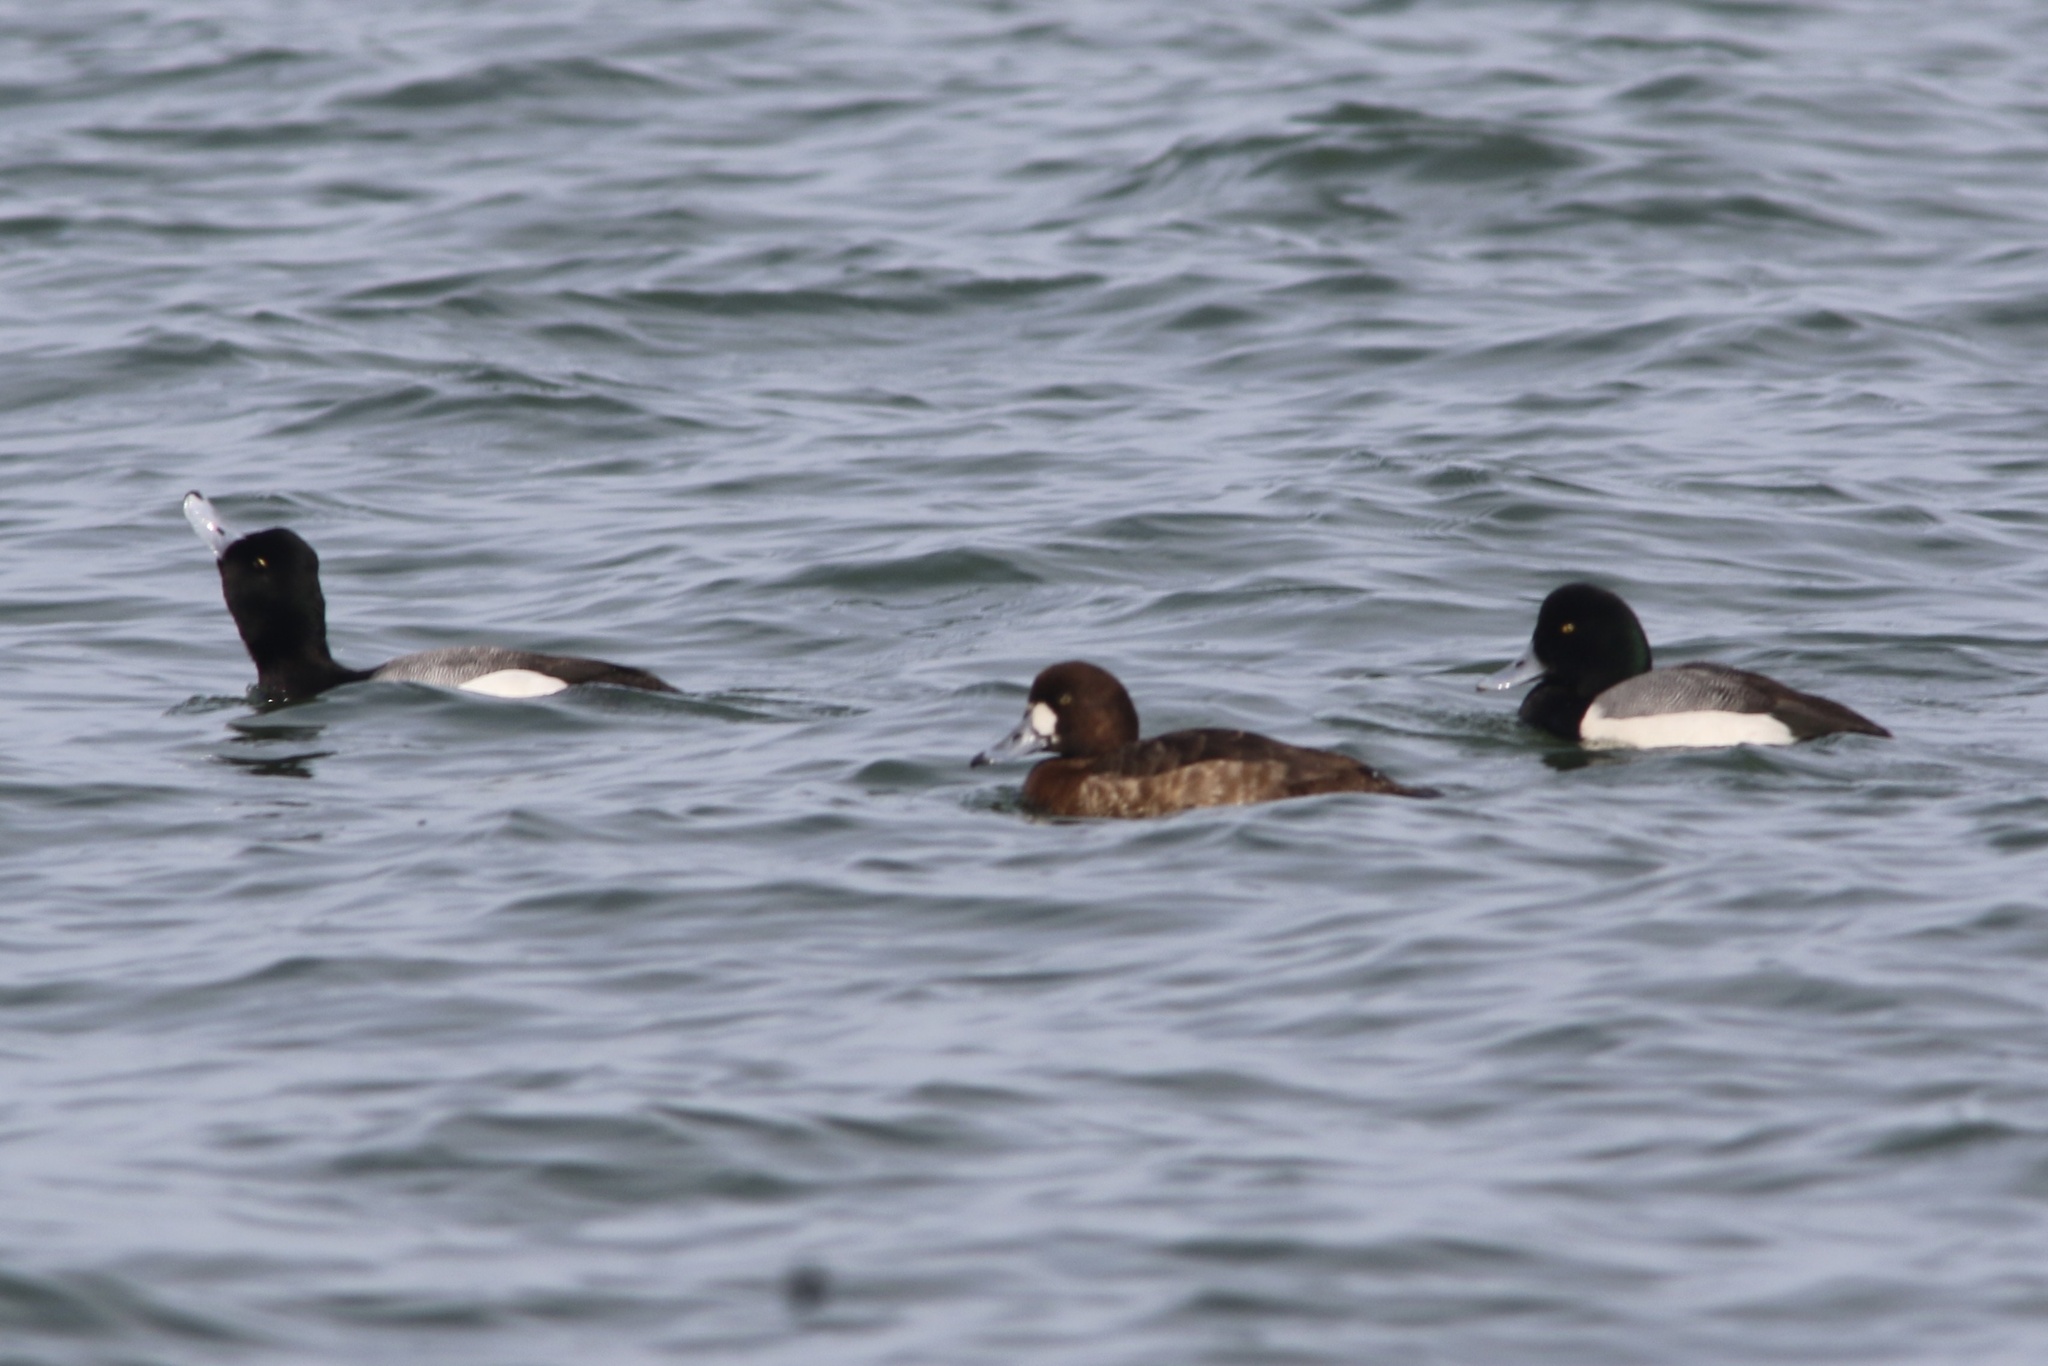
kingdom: Animalia
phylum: Chordata
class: Aves
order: Anseriformes
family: Anatidae
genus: Aythya
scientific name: Aythya marila
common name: Greater scaup
